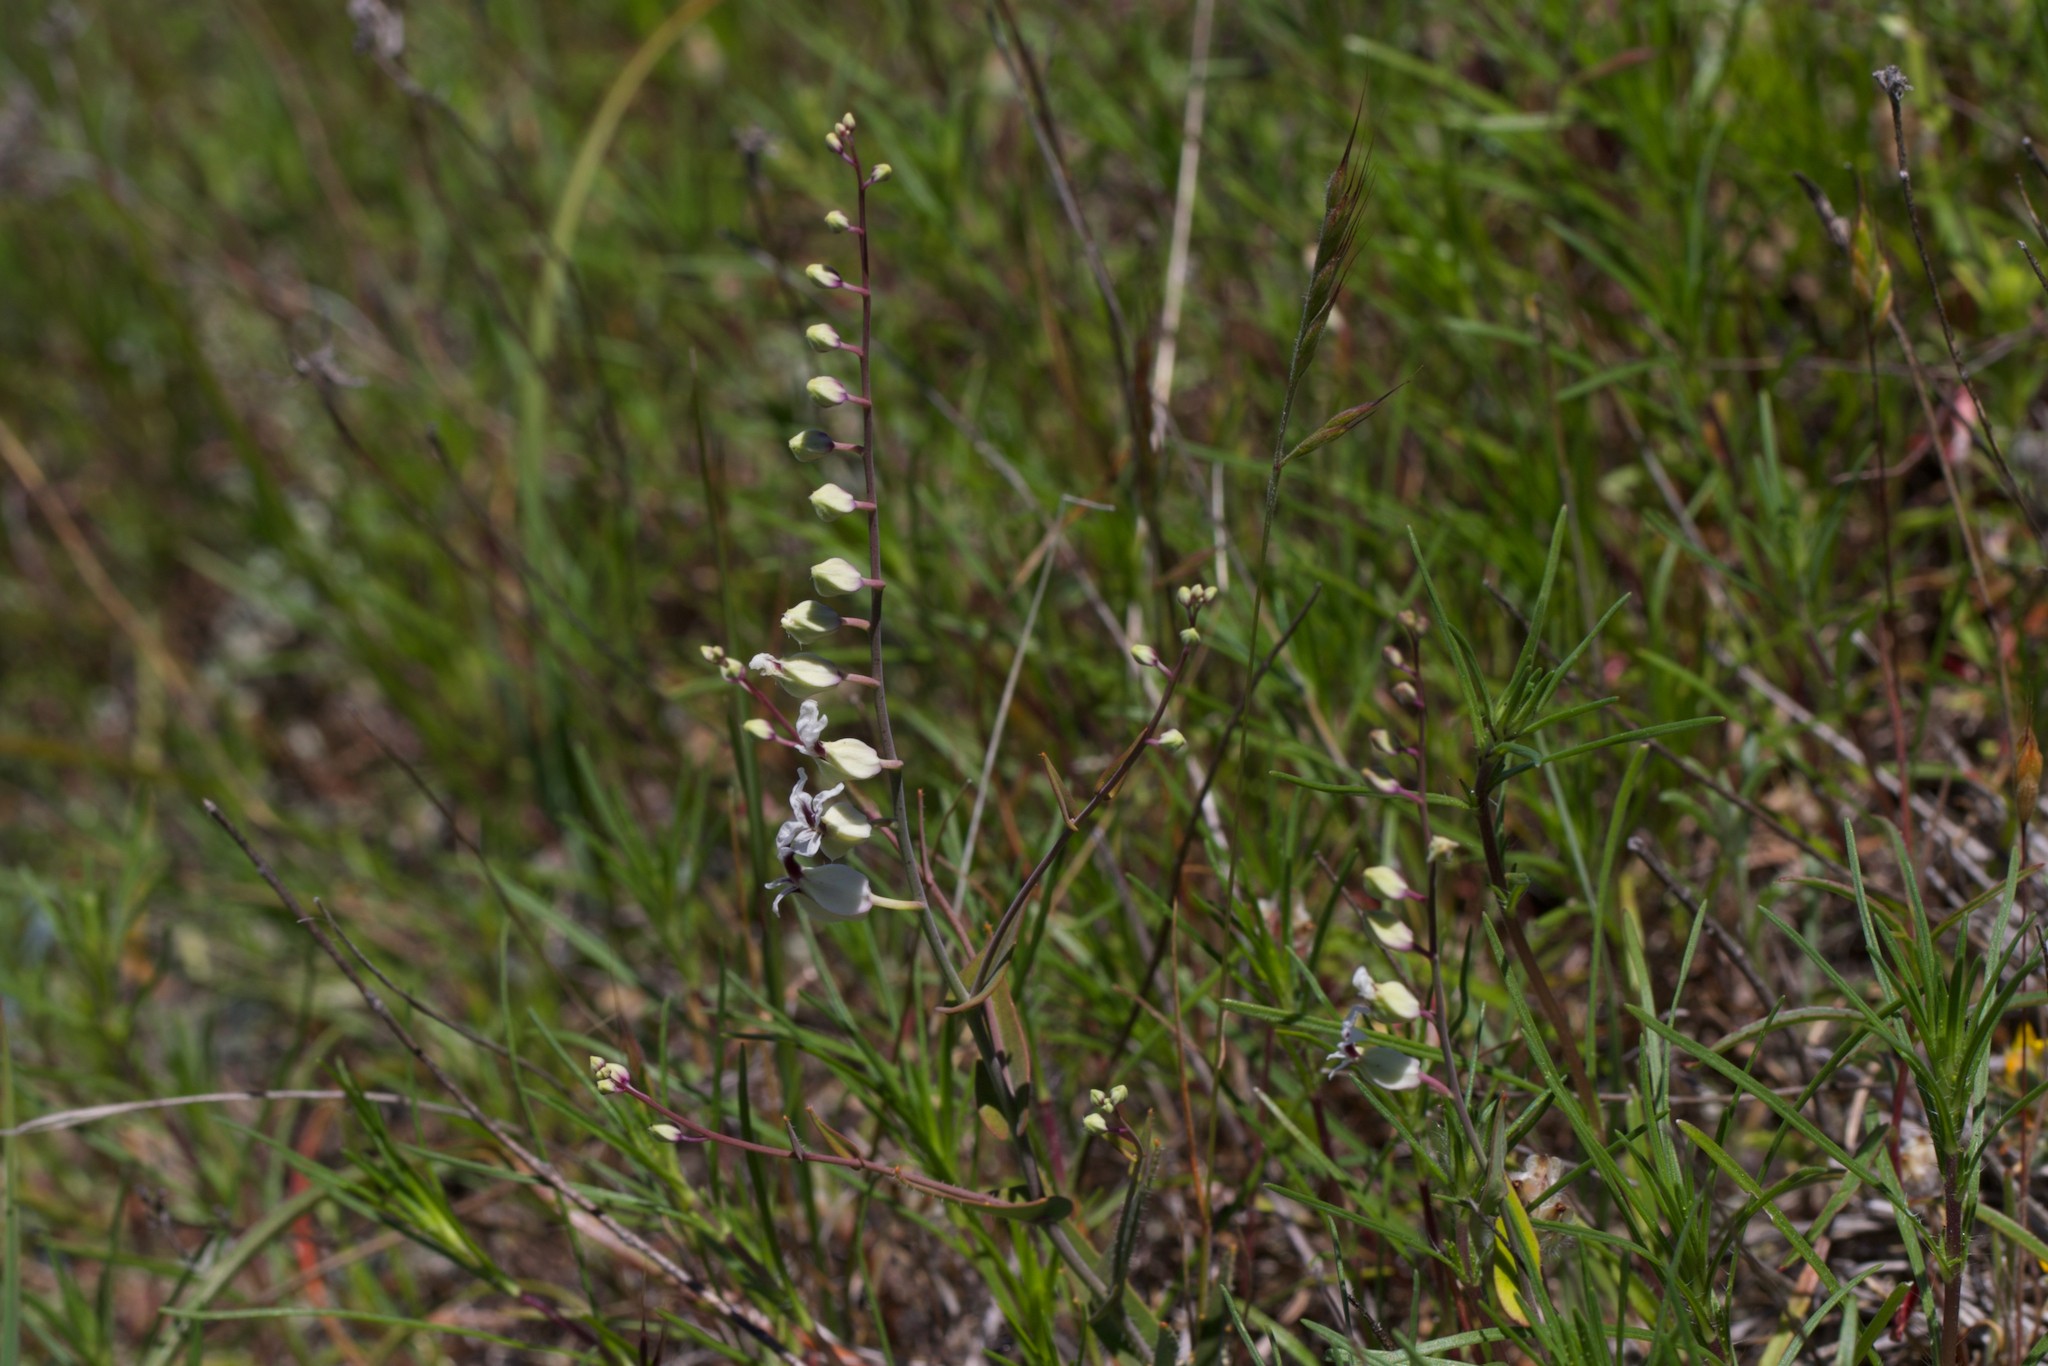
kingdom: Plantae
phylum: Tracheophyta
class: Magnoliopsida
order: Brassicales
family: Brassicaceae
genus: Streptanthus
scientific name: Streptanthus glandulosus
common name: Jewel-flower
